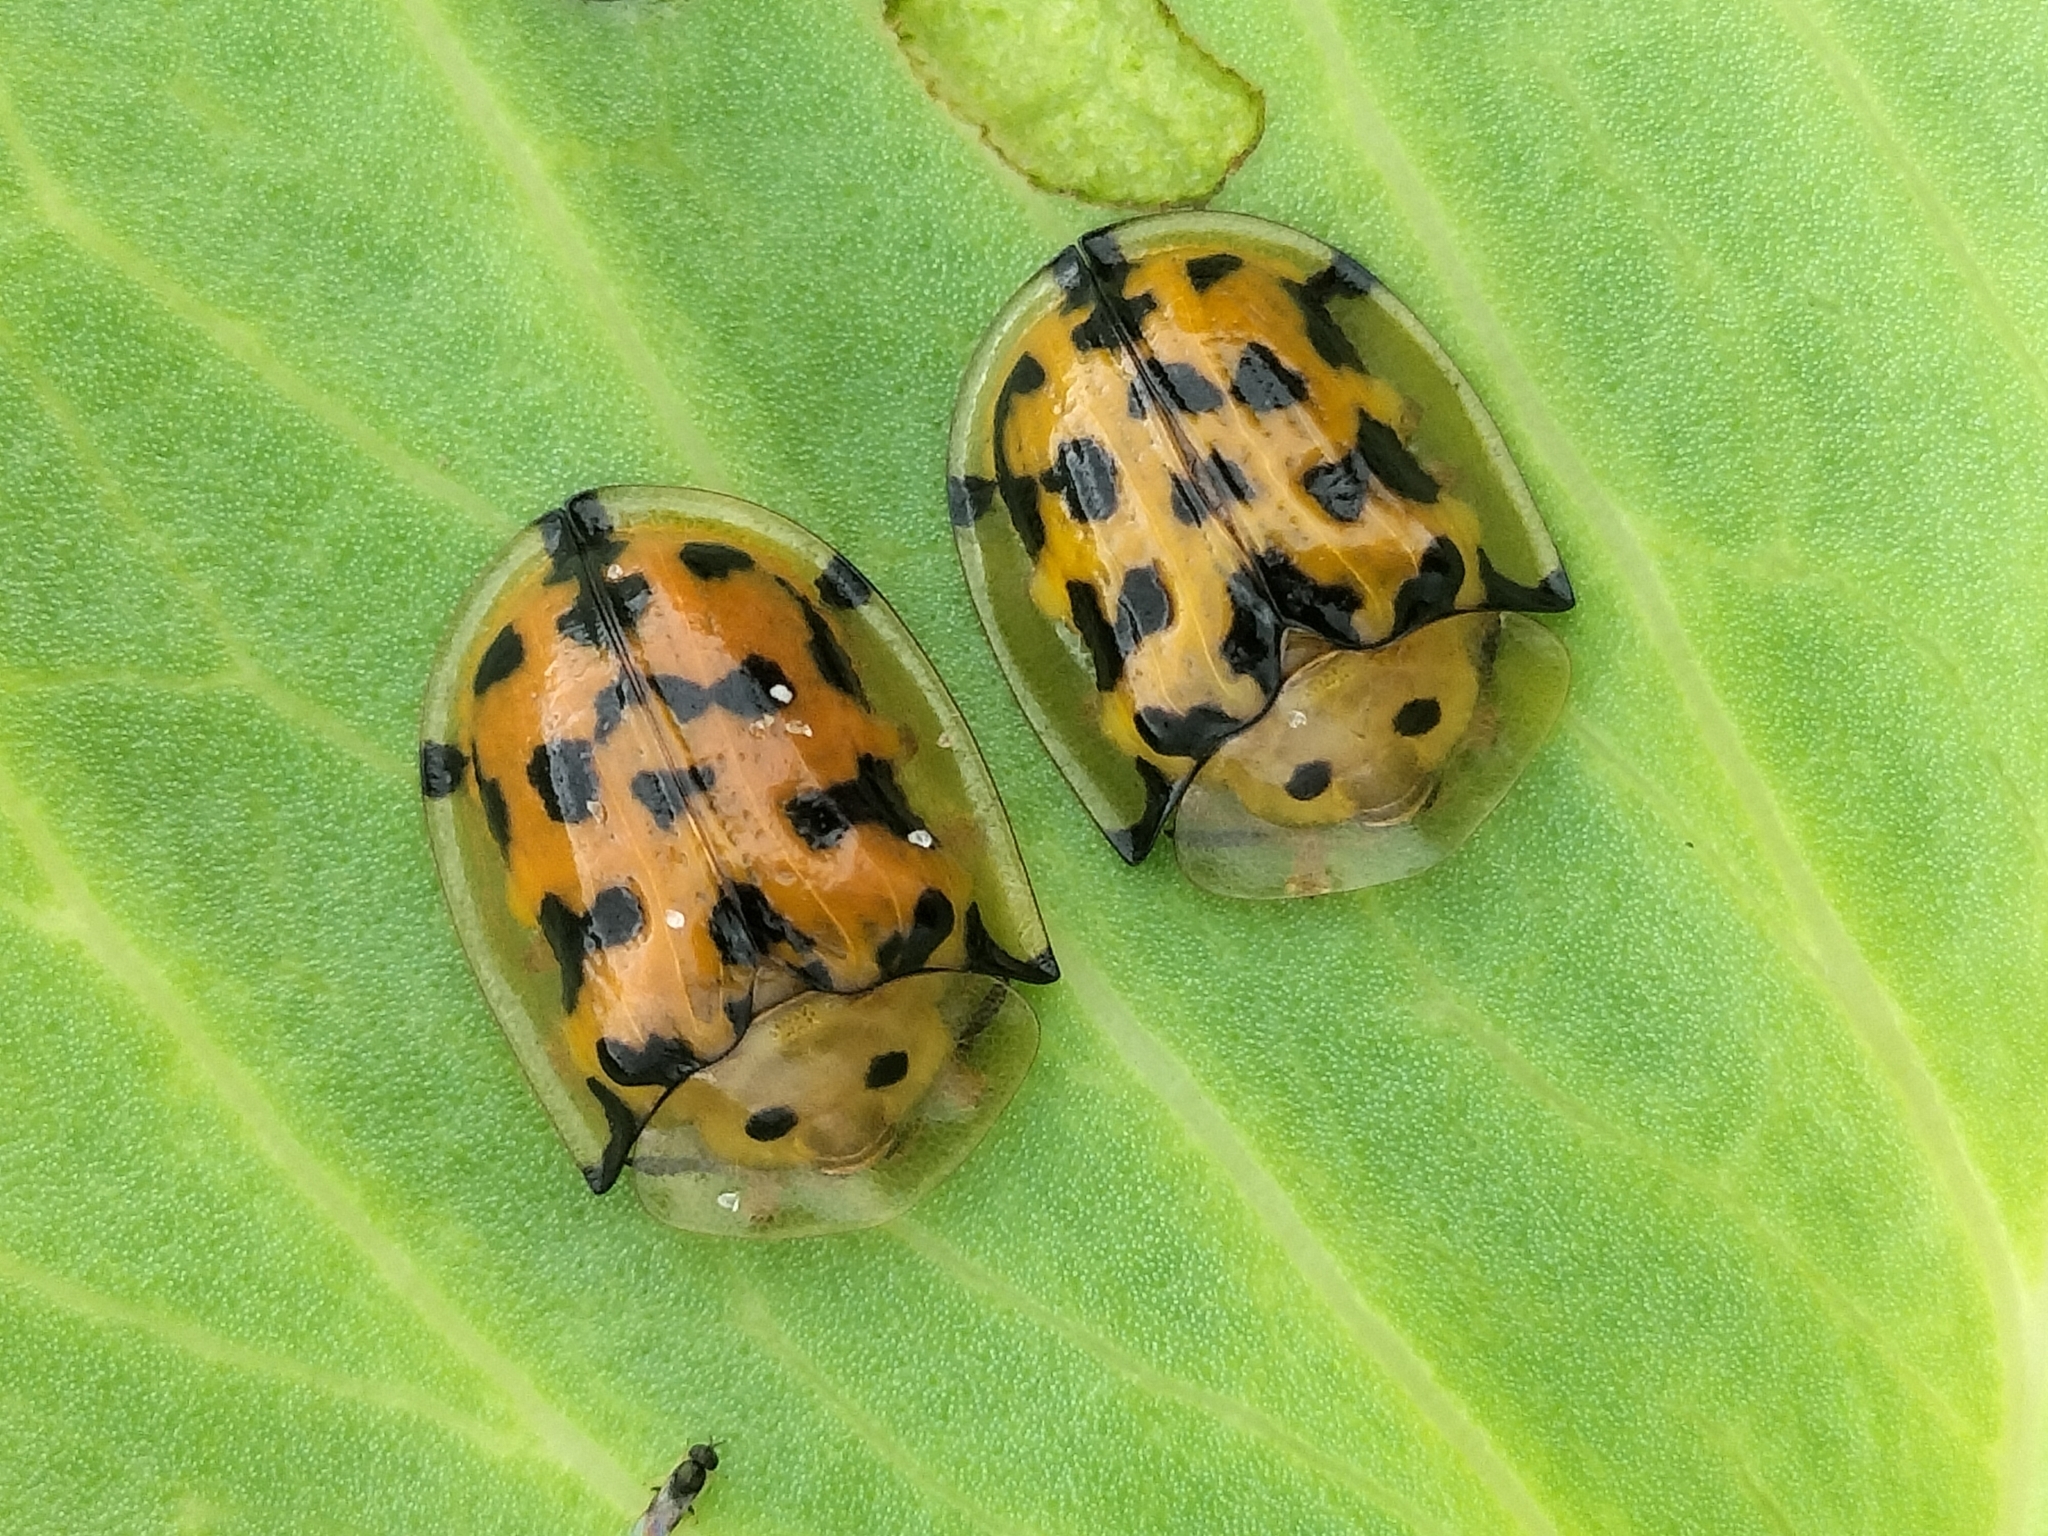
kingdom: Animalia
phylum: Arthropoda
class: Insecta
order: Coleoptera
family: Chrysomelidae
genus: Aspidimorpha
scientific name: Aspidimorpha deusta
